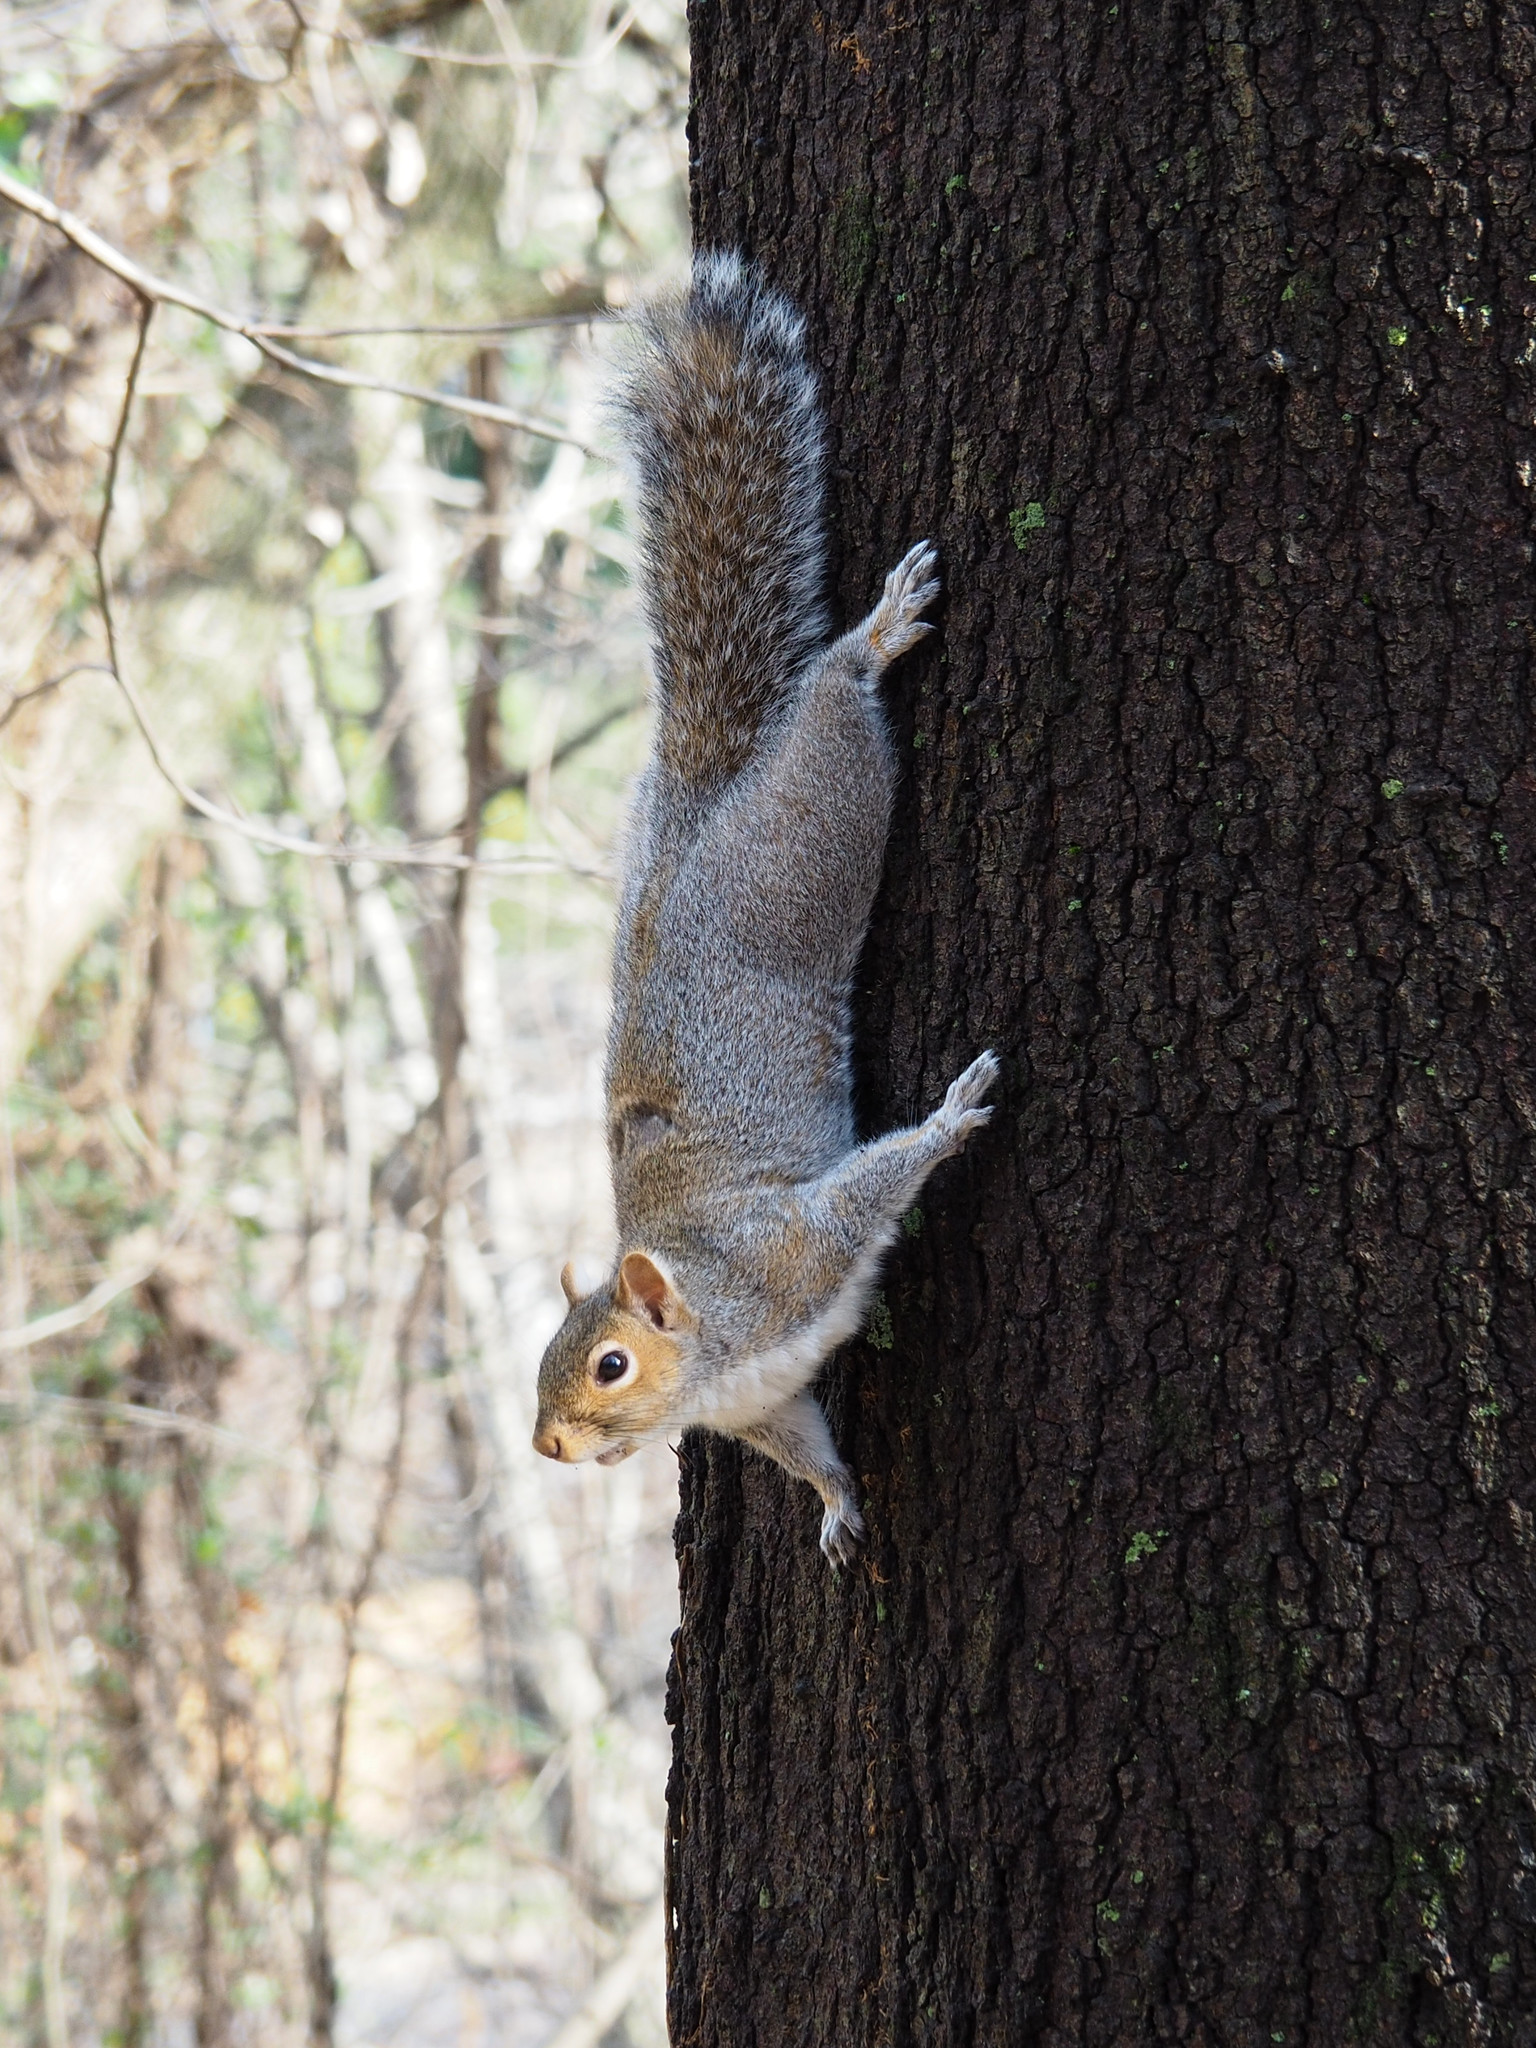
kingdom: Animalia
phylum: Chordata
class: Mammalia
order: Rodentia
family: Sciuridae
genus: Sciurus
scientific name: Sciurus carolinensis
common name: Eastern gray squirrel
